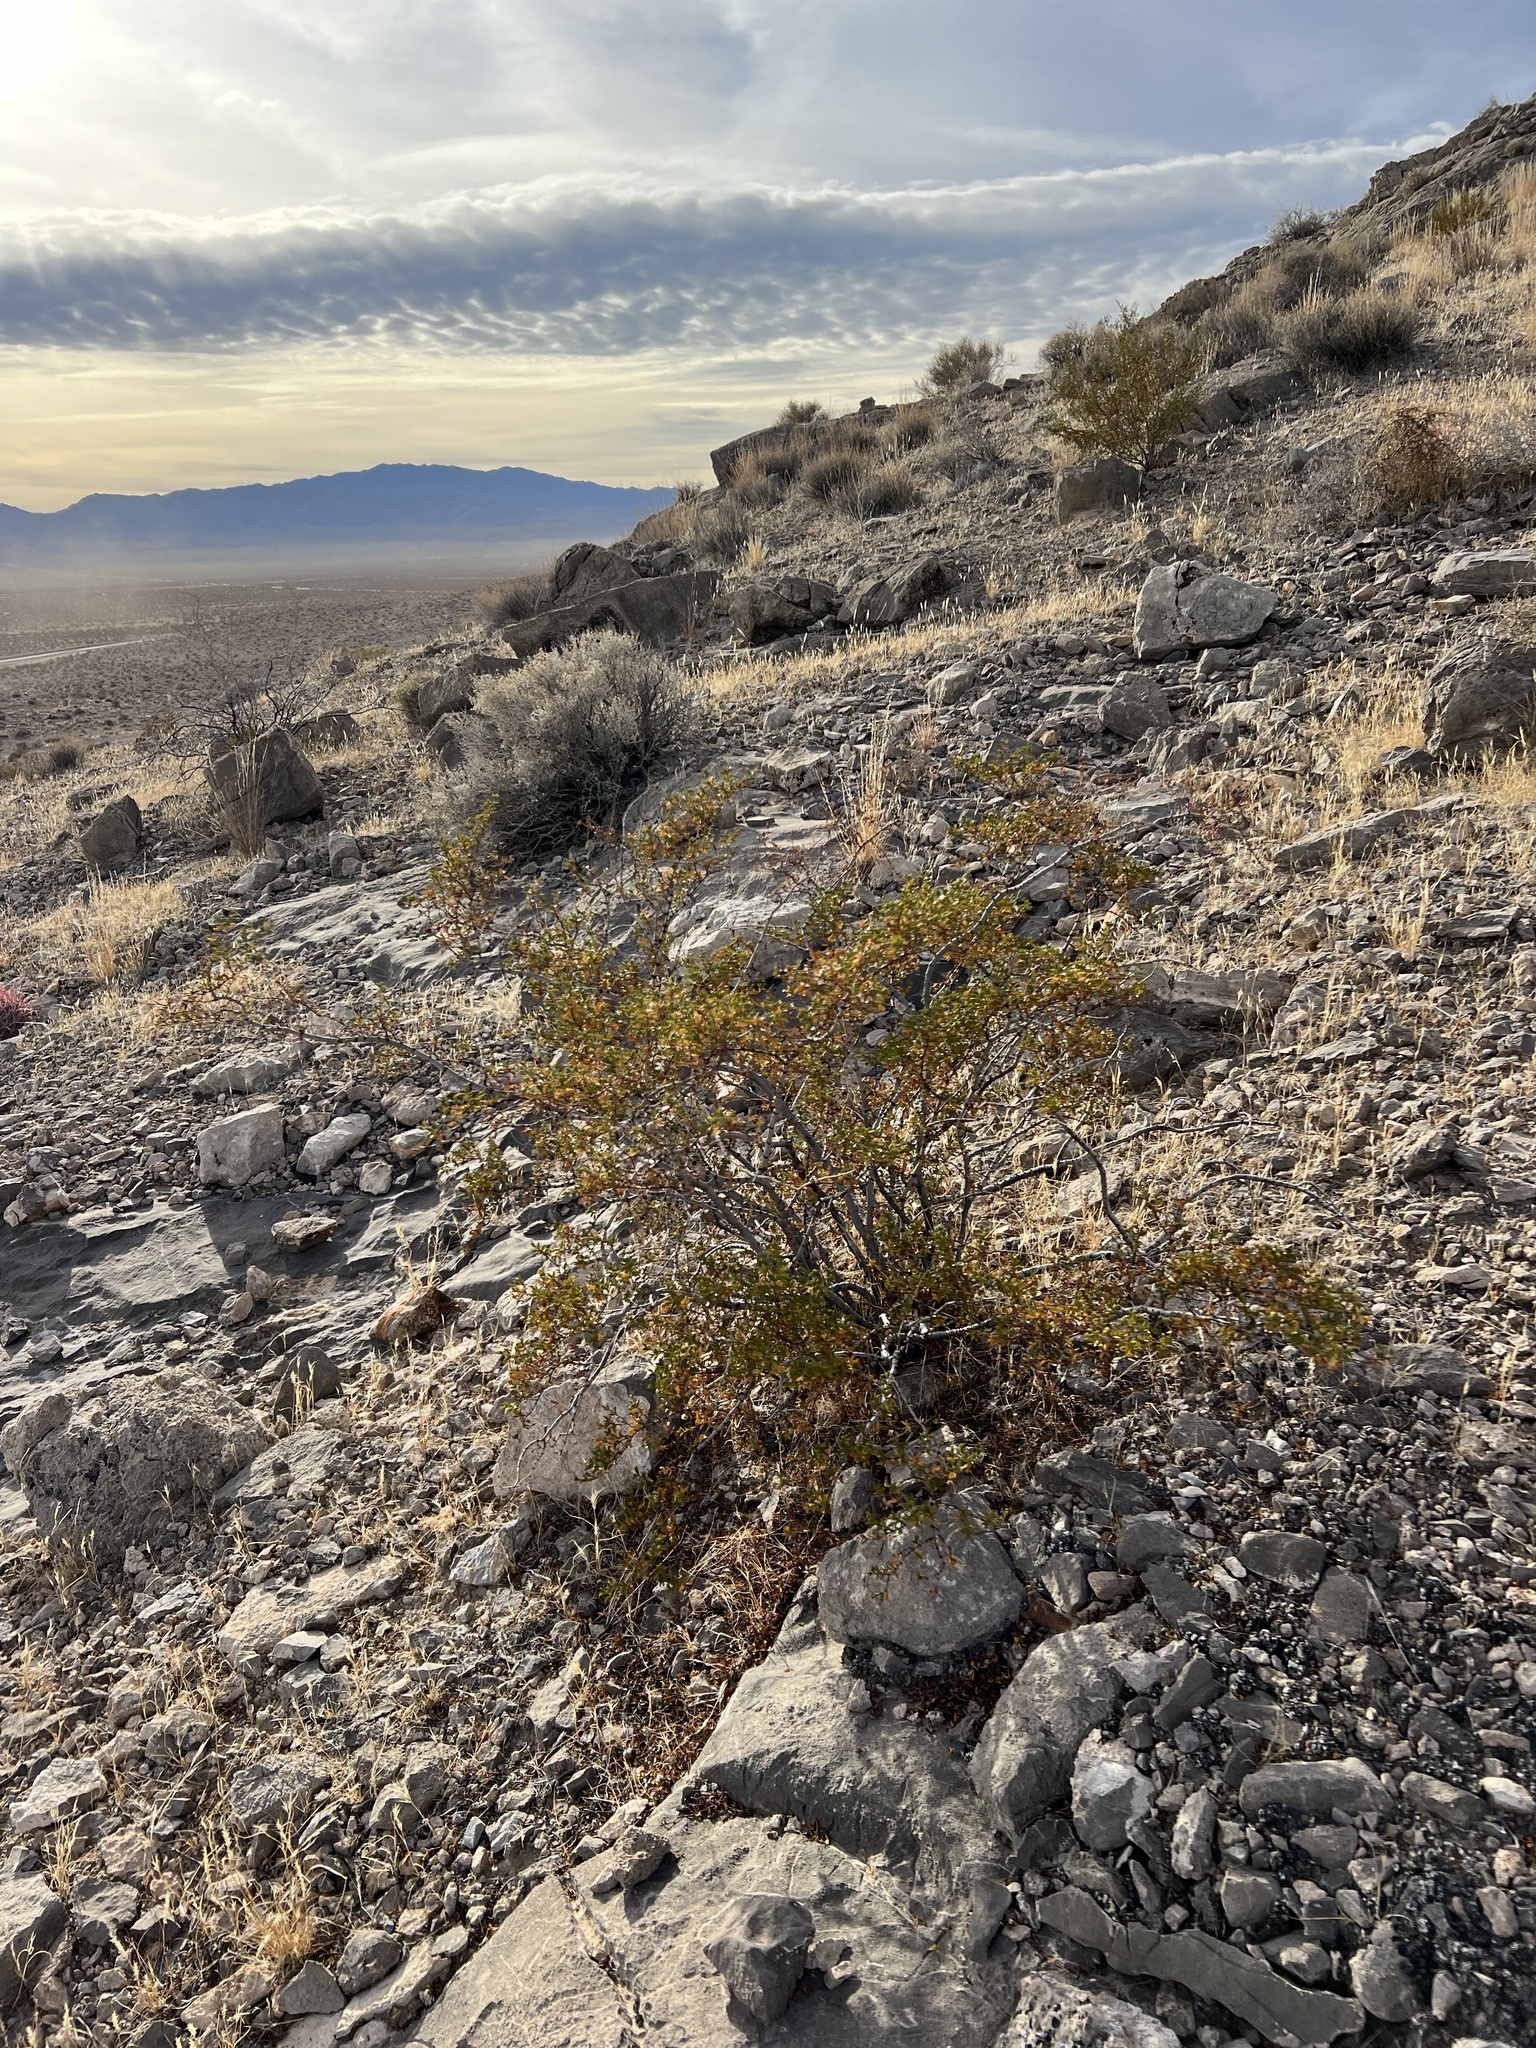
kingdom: Plantae
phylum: Tracheophyta
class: Magnoliopsida
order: Zygophyllales
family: Zygophyllaceae
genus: Larrea
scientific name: Larrea tridentata
